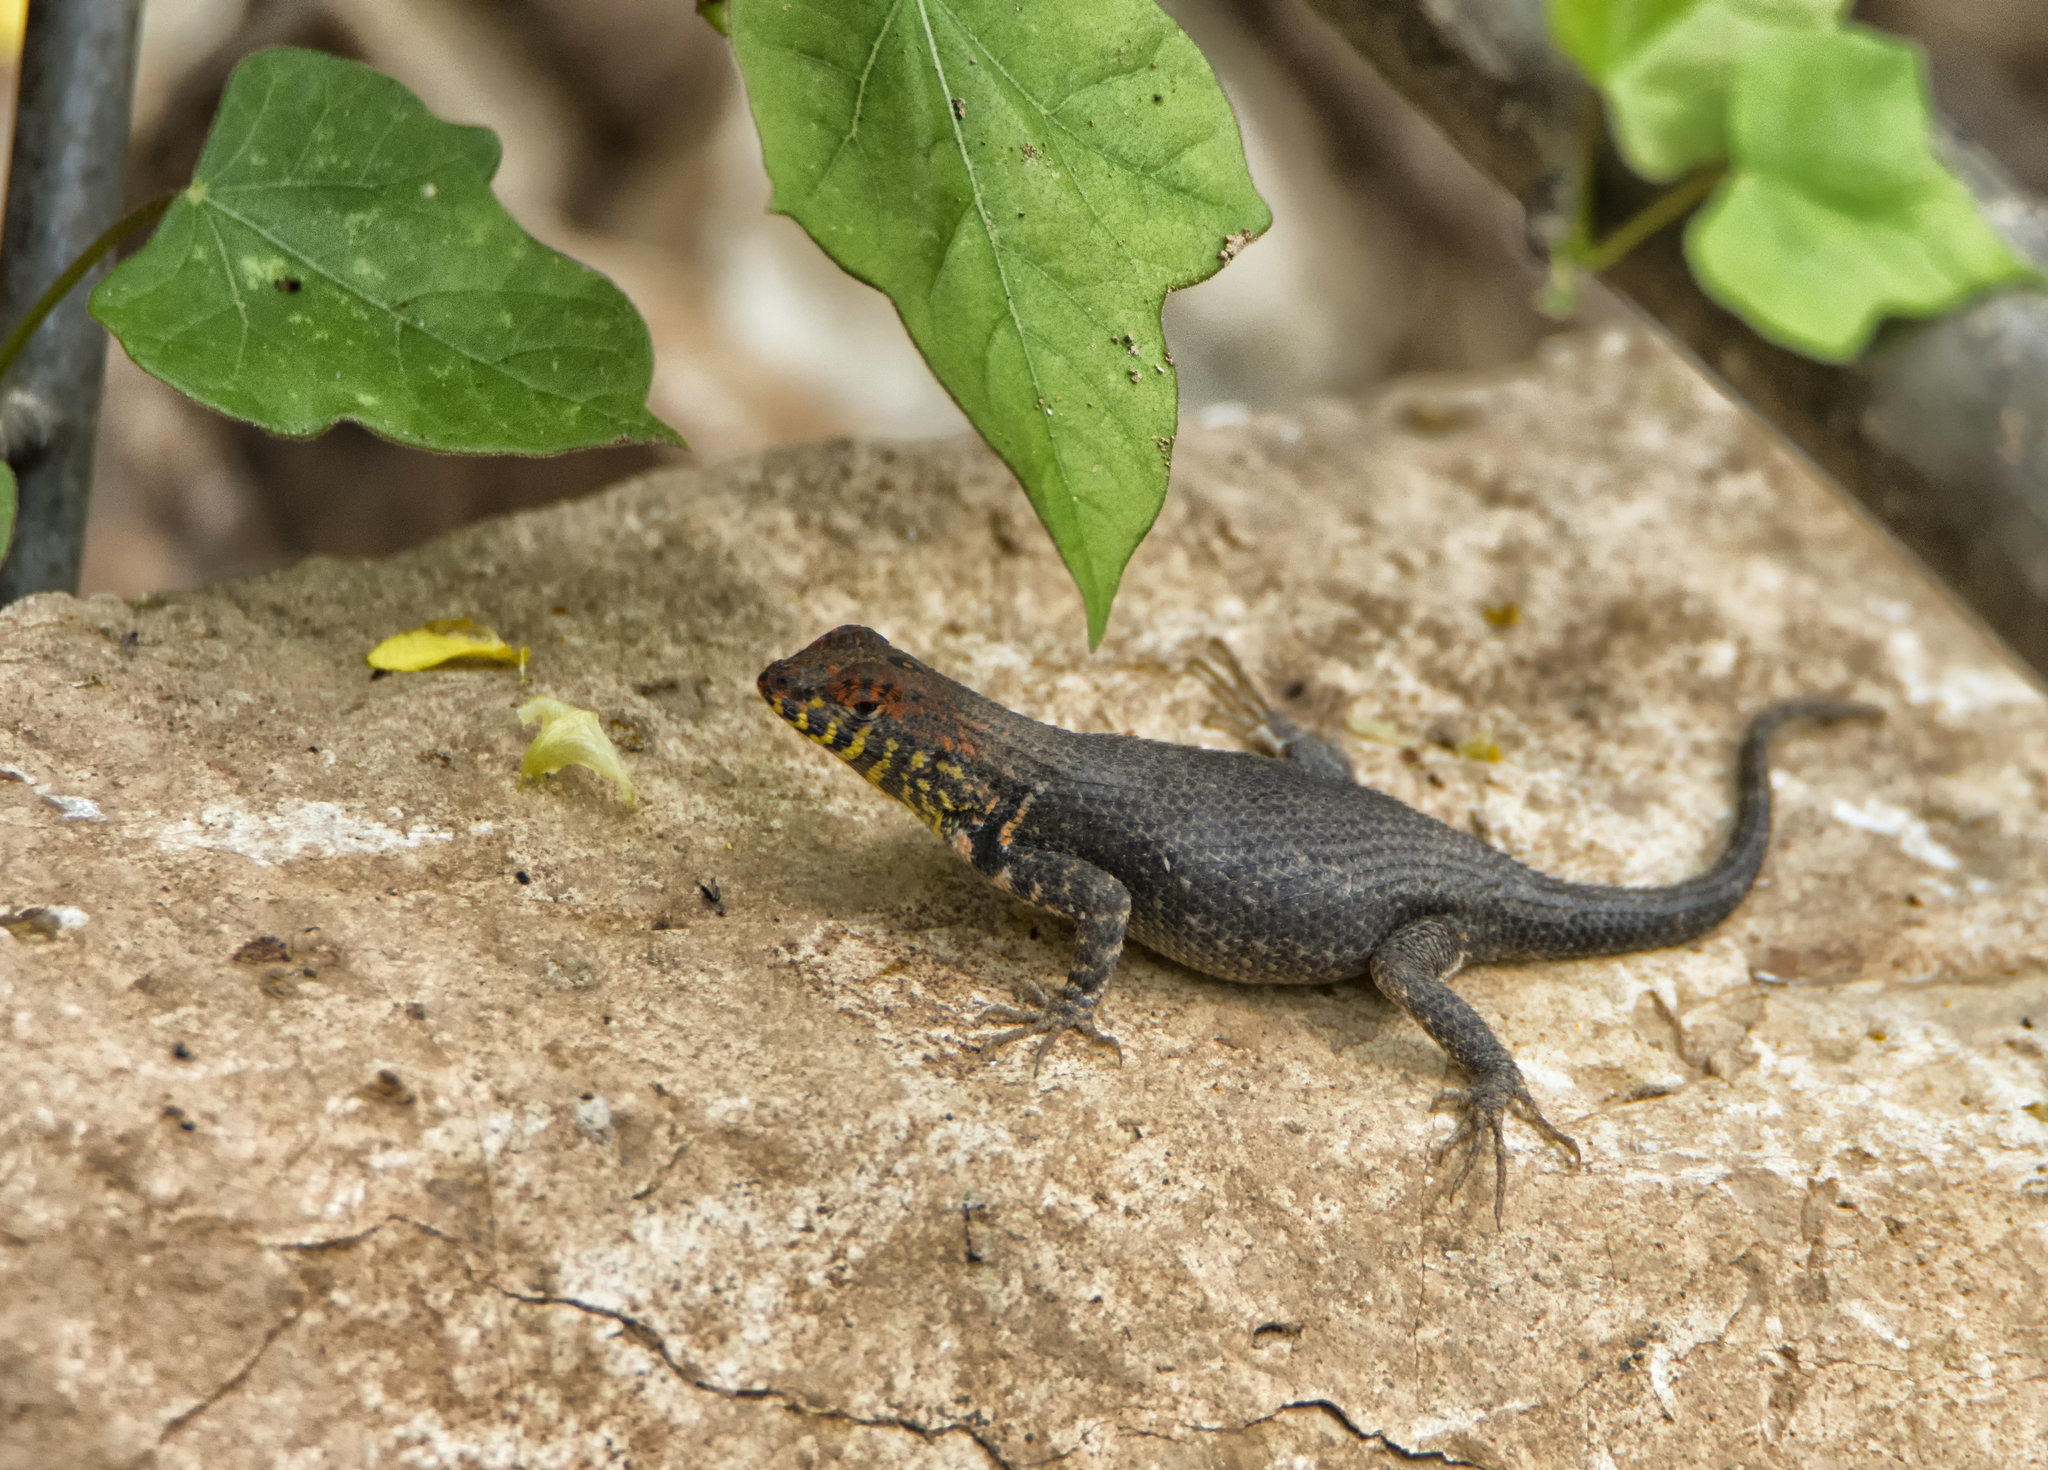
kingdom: Animalia
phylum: Chordata
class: Squamata
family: Phrynosomatidae
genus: Sceloporus
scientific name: Sceloporus pyrocephalus
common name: Boulder spiny lizard
